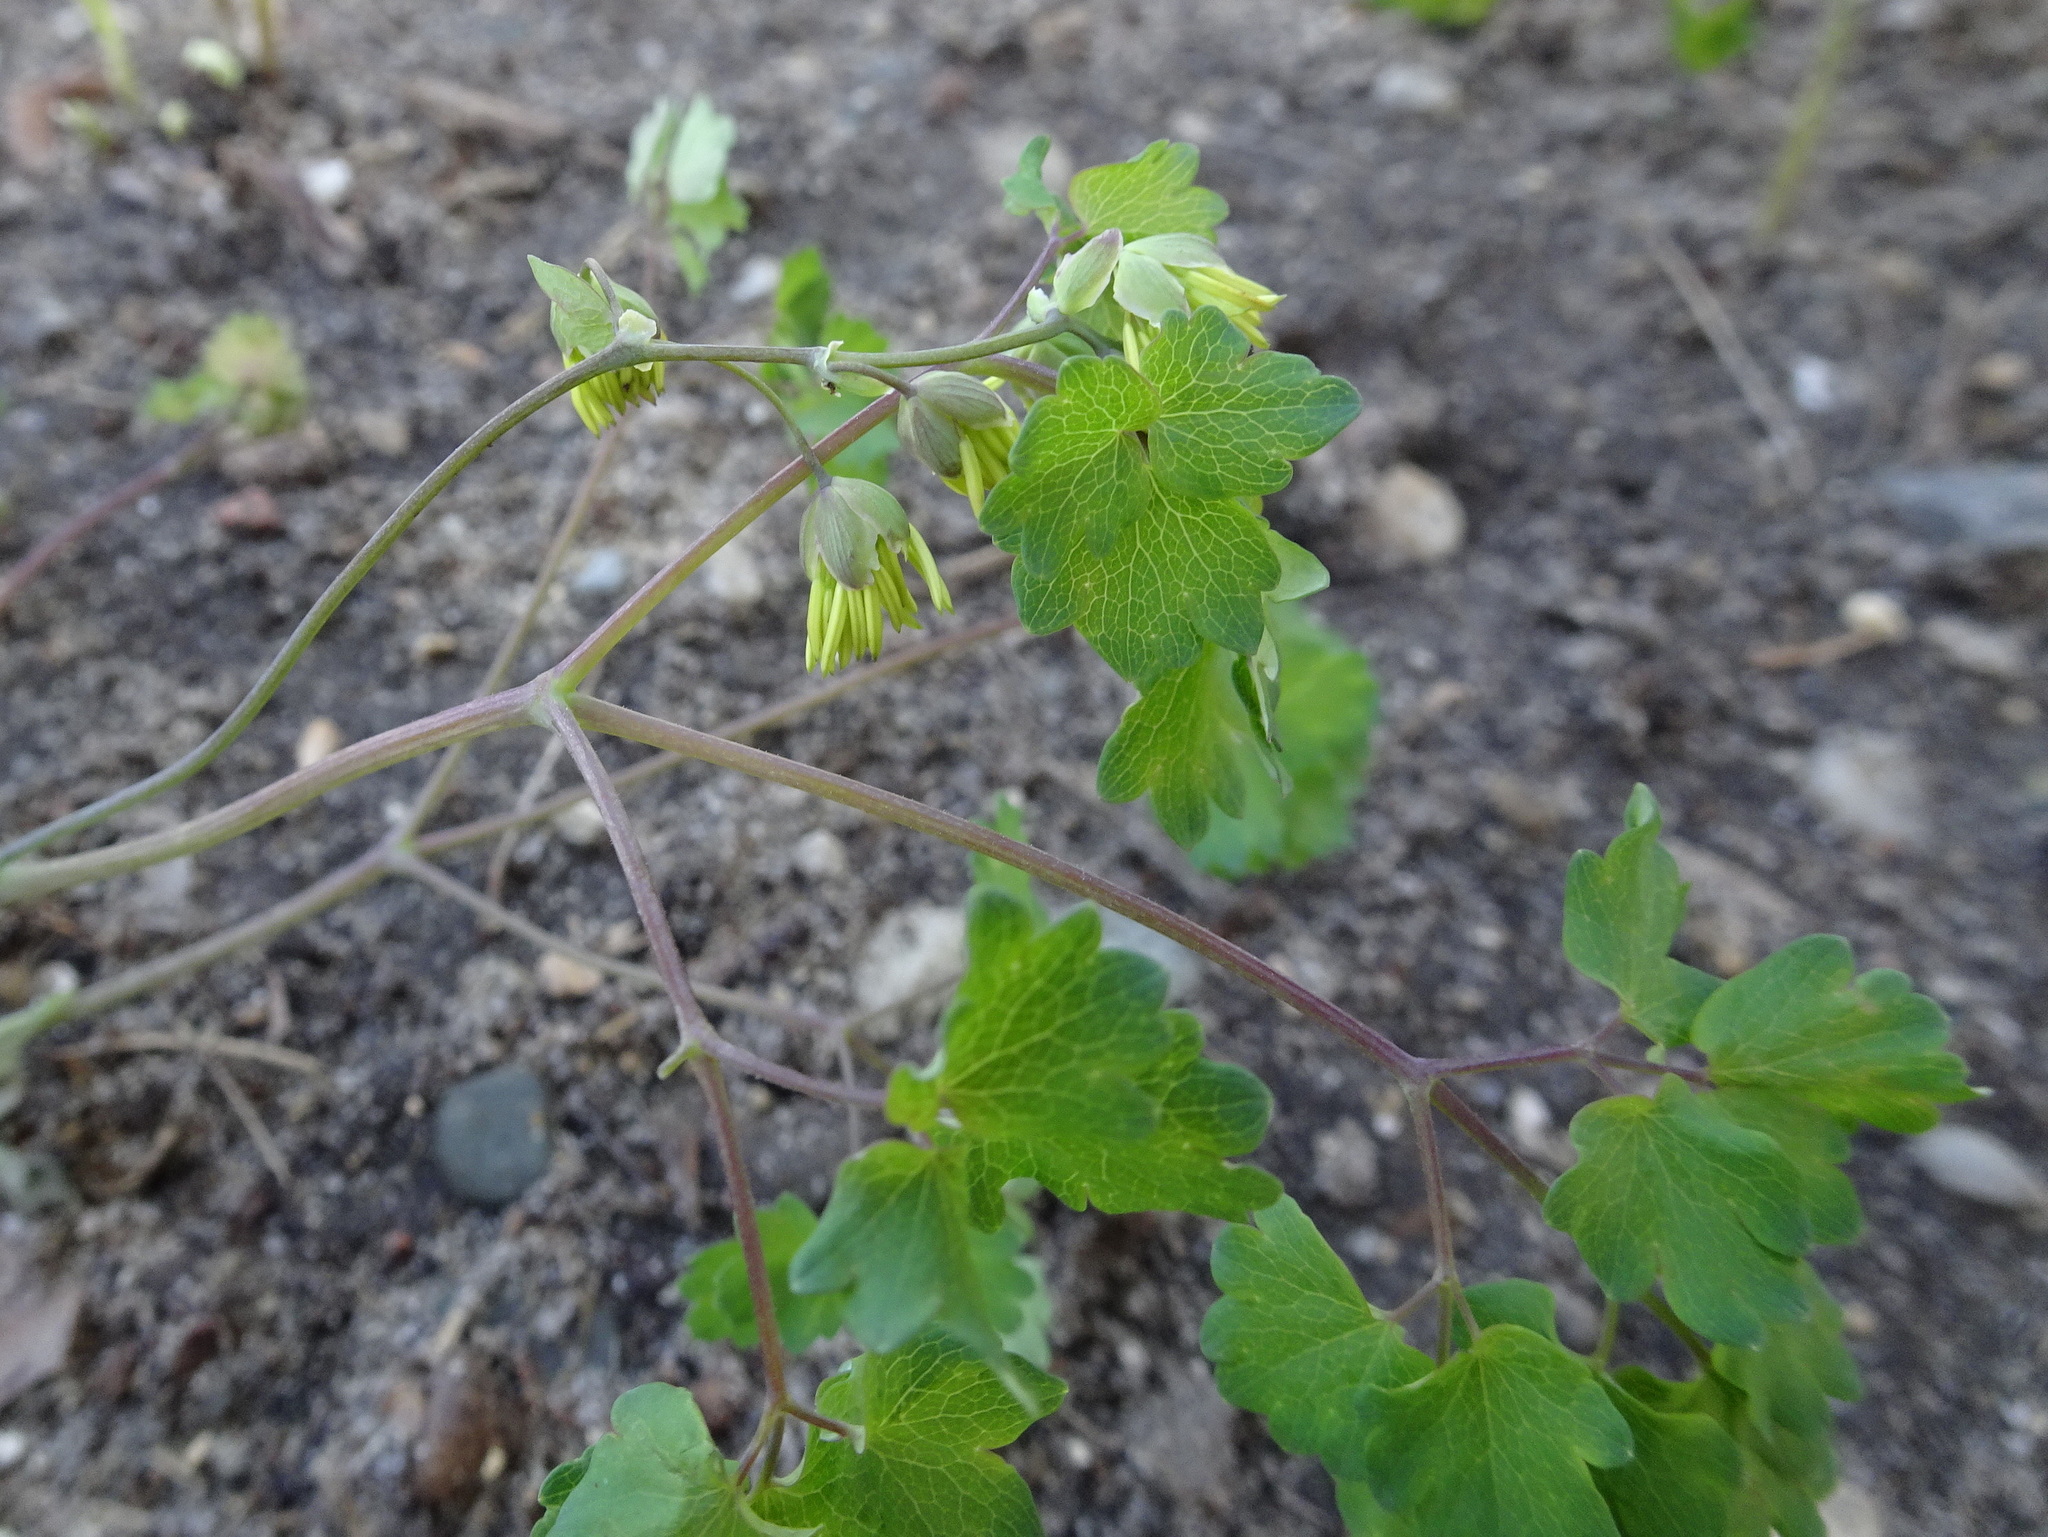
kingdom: Plantae
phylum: Tracheophyta
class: Magnoliopsida
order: Ranunculales
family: Ranunculaceae
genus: Thalictrum
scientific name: Thalictrum dioicum
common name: Early meadow-rue
